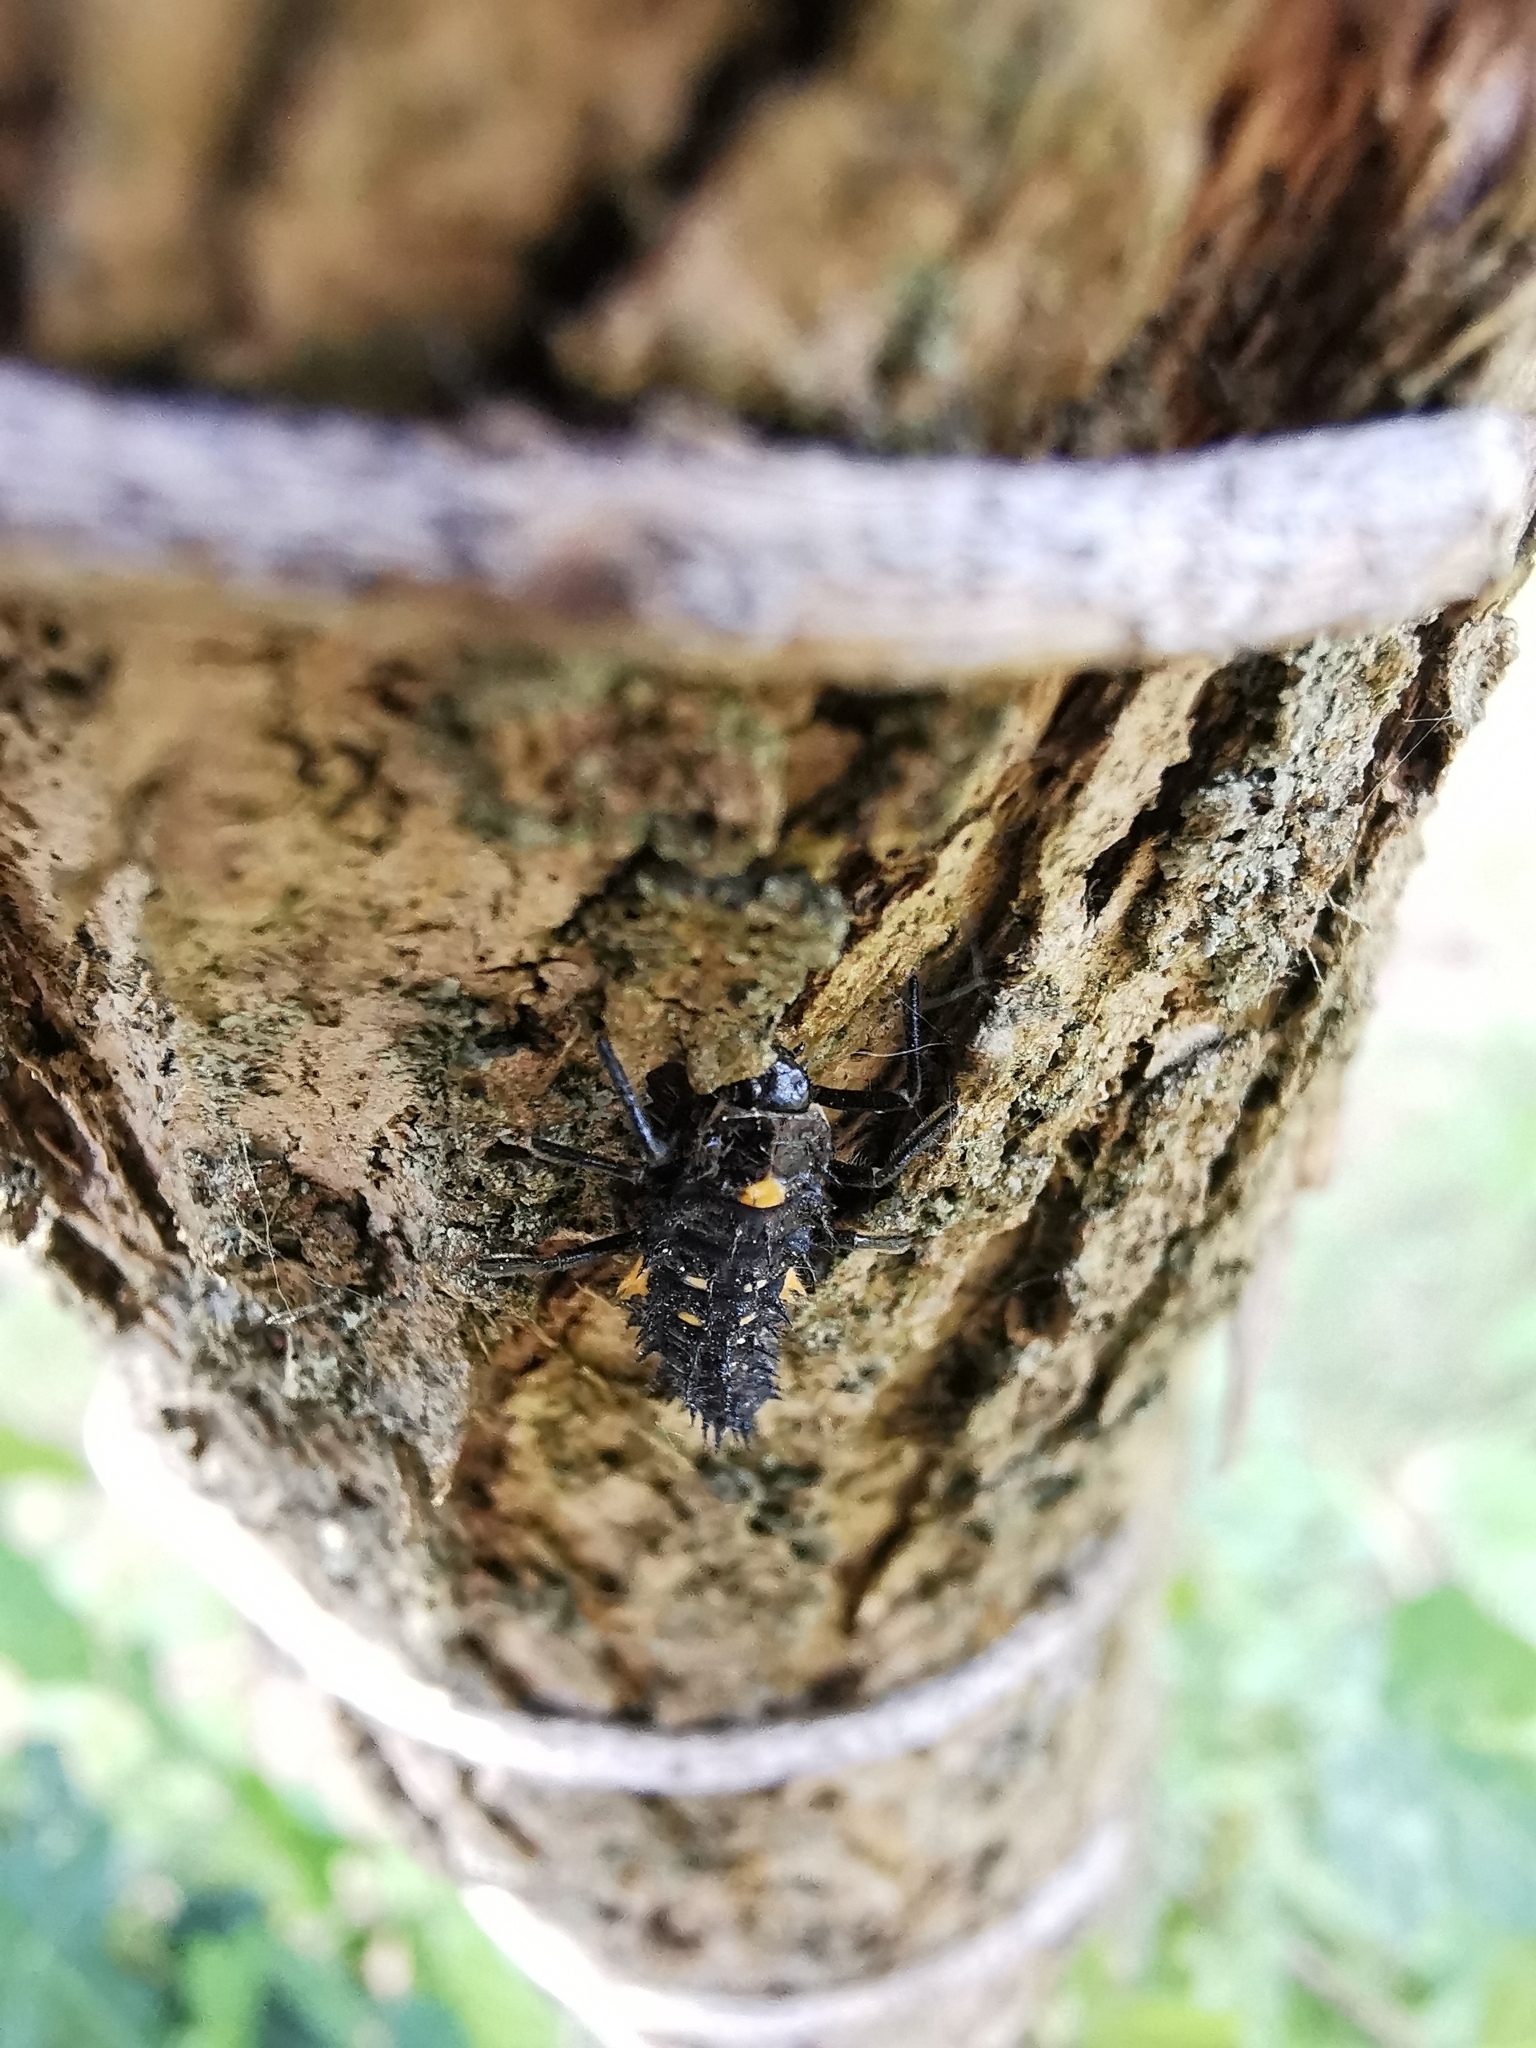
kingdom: Animalia
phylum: Arthropoda
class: Insecta
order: Coleoptera
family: Coccinellidae
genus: Anatis
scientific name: Anatis ocellata
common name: Eyed ladybird
